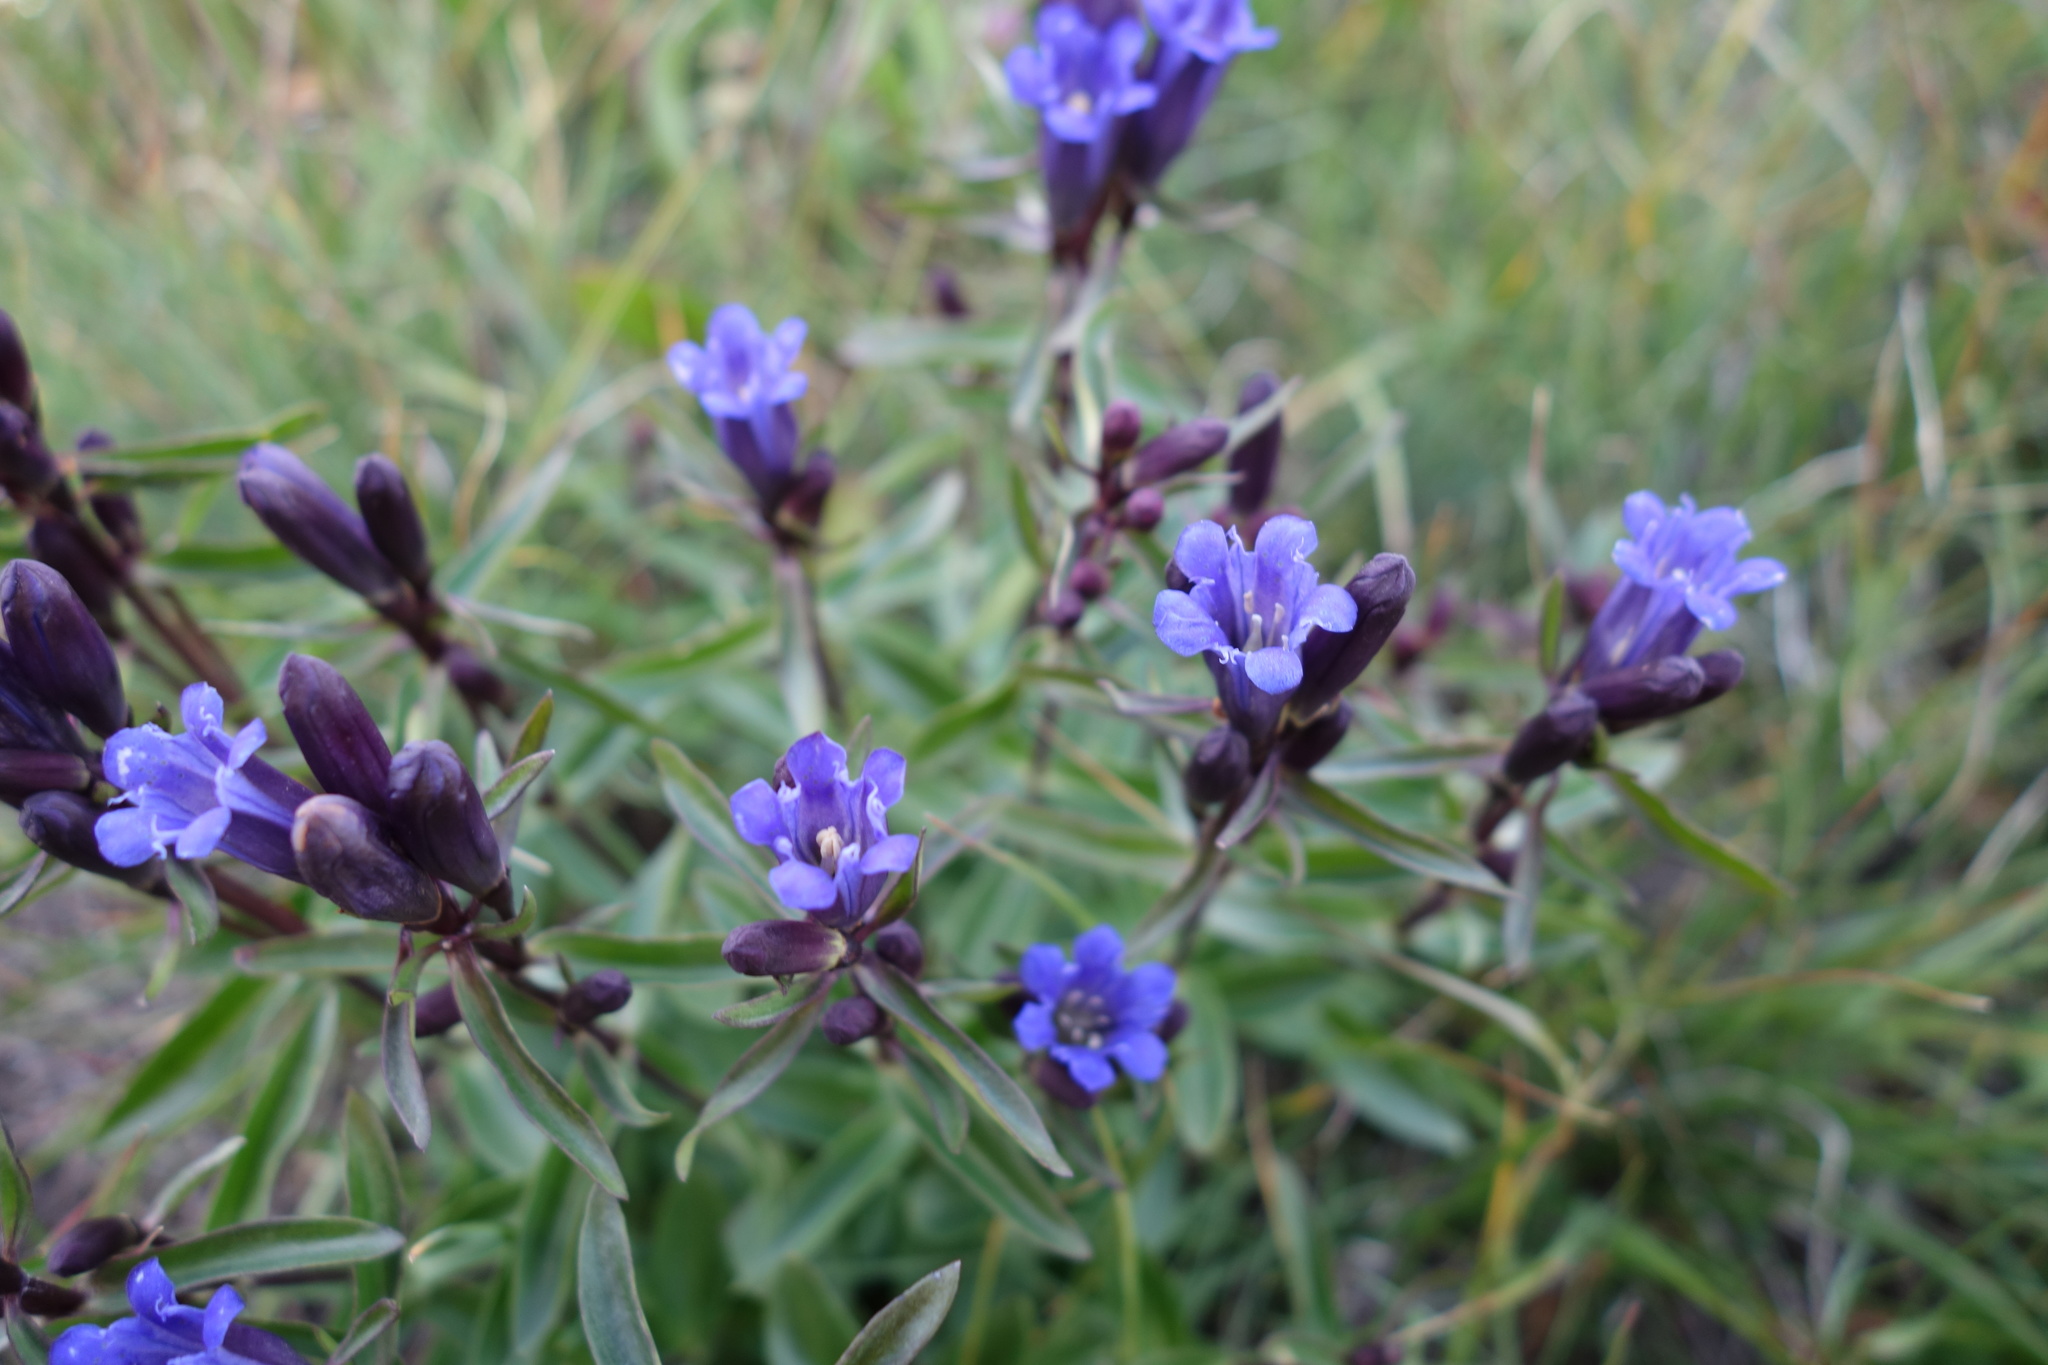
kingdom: Plantae
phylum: Tracheophyta
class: Magnoliopsida
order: Gentianales
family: Gentianaceae
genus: Gentiana
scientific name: Gentiana affinis
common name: Rocky mountain gentian
